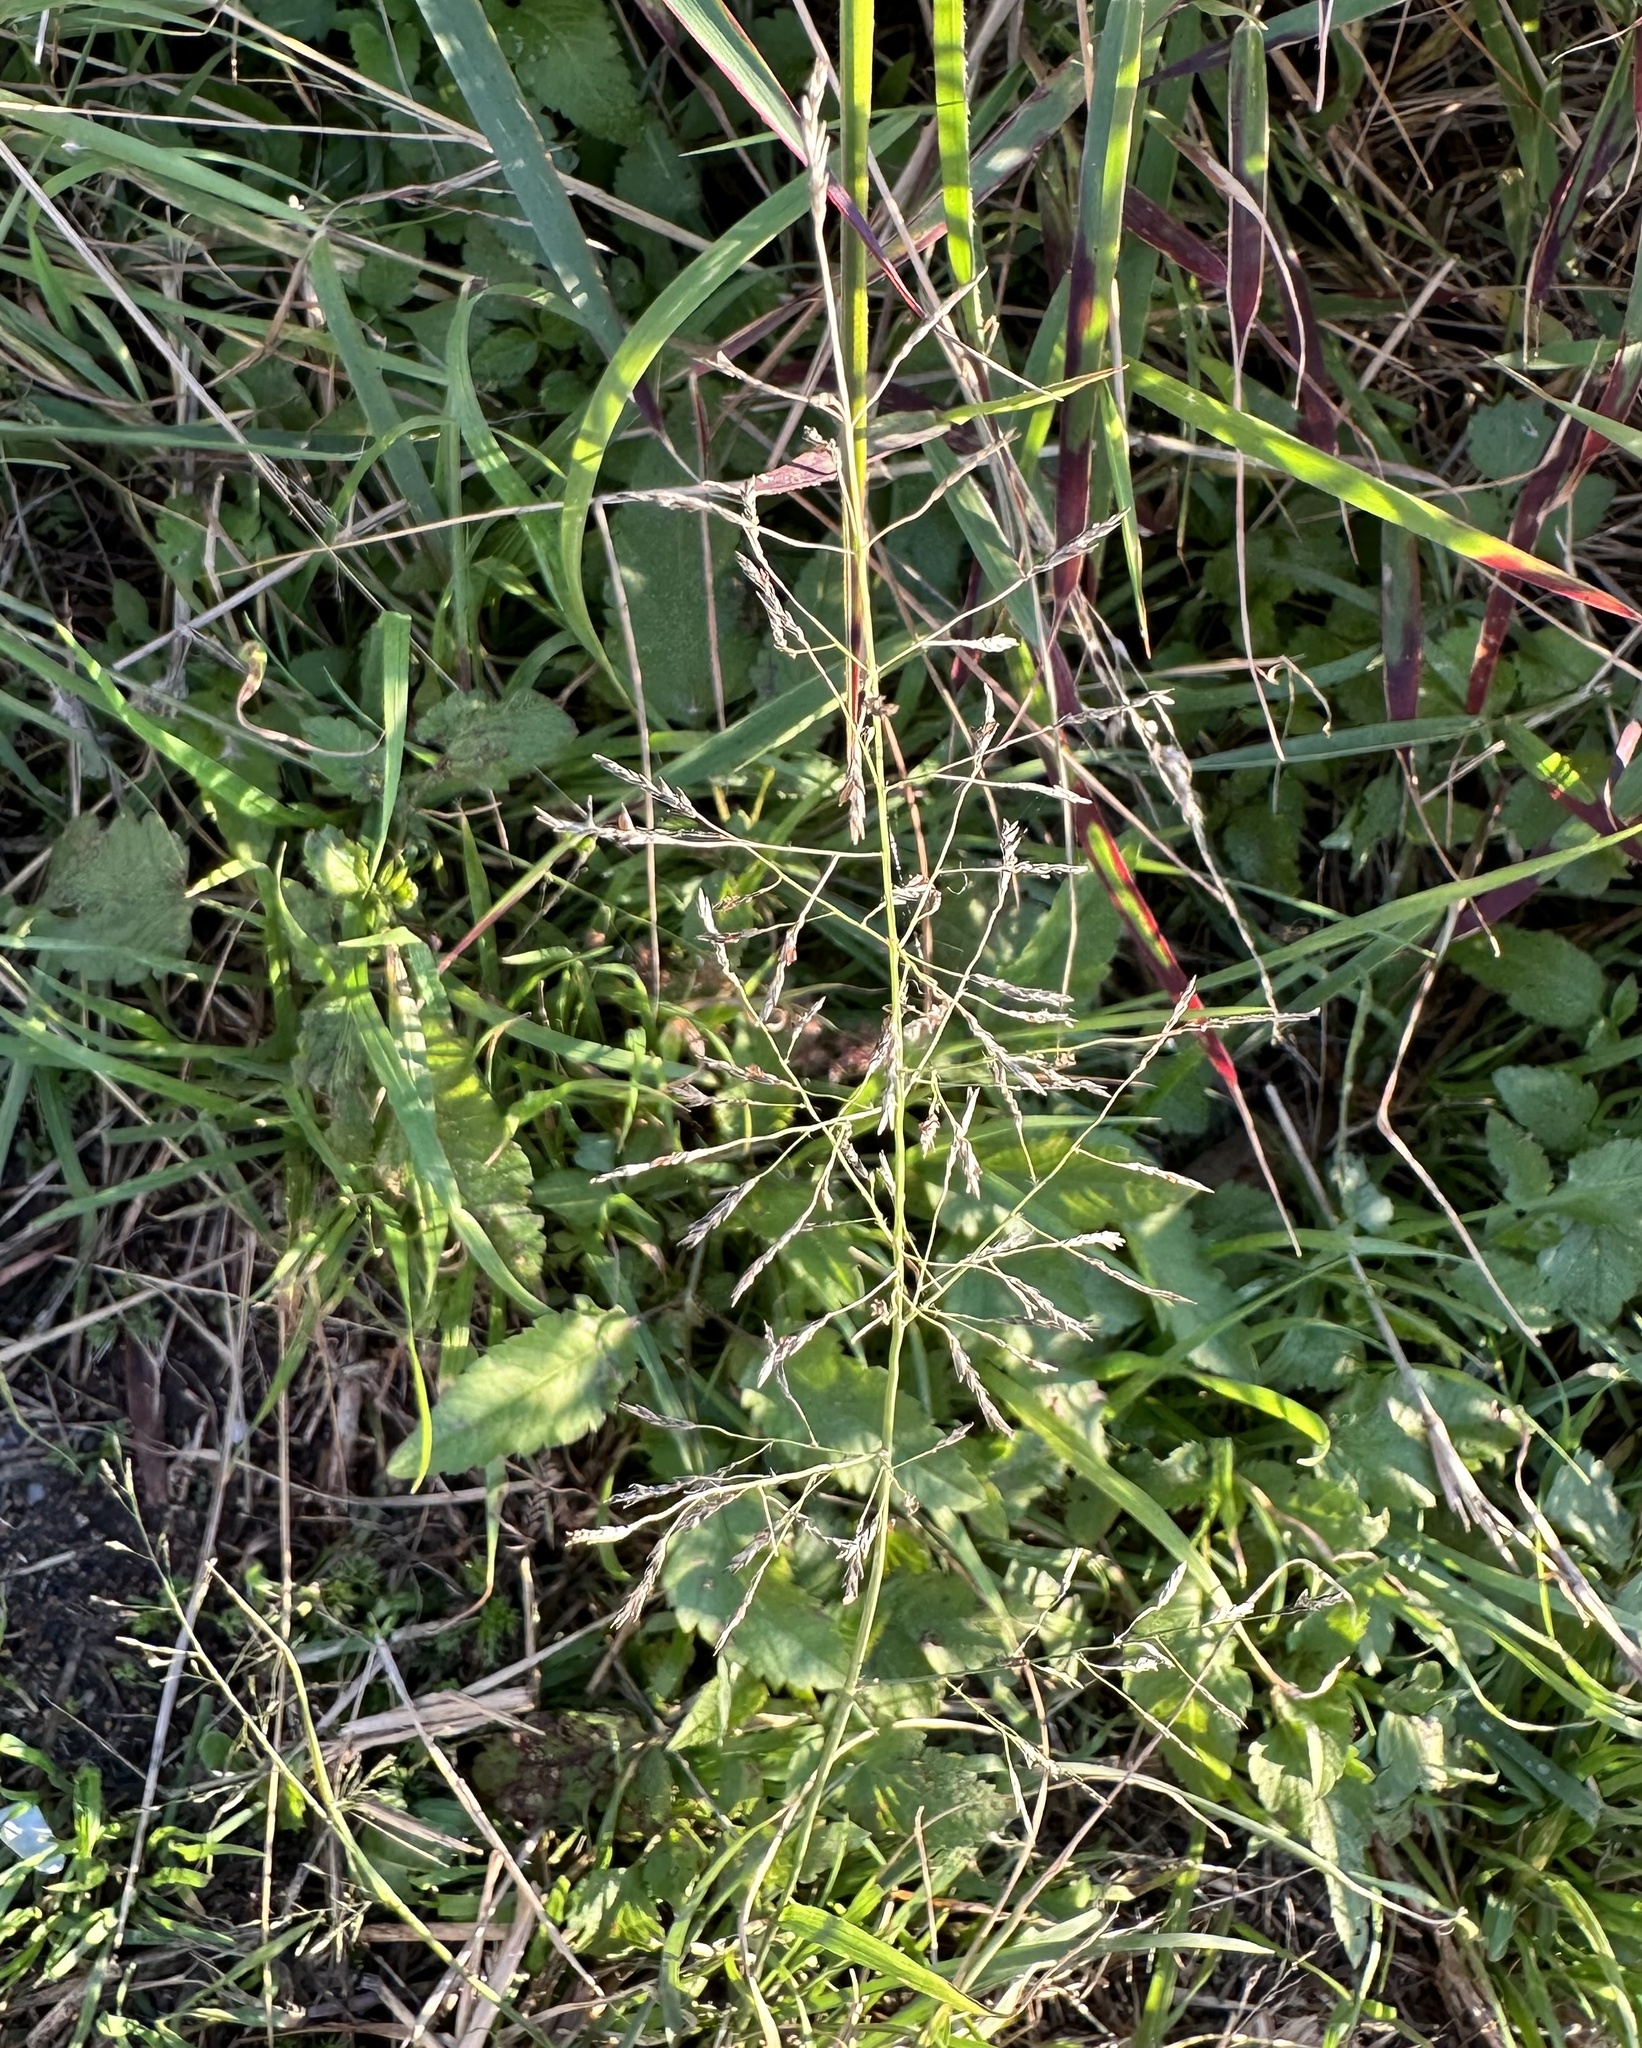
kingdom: Plantae
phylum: Tracheophyta
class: Liliopsida
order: Poales
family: Poaceae
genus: Eragrostis
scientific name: Eragrostis tenuifolia
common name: Elastic grass
